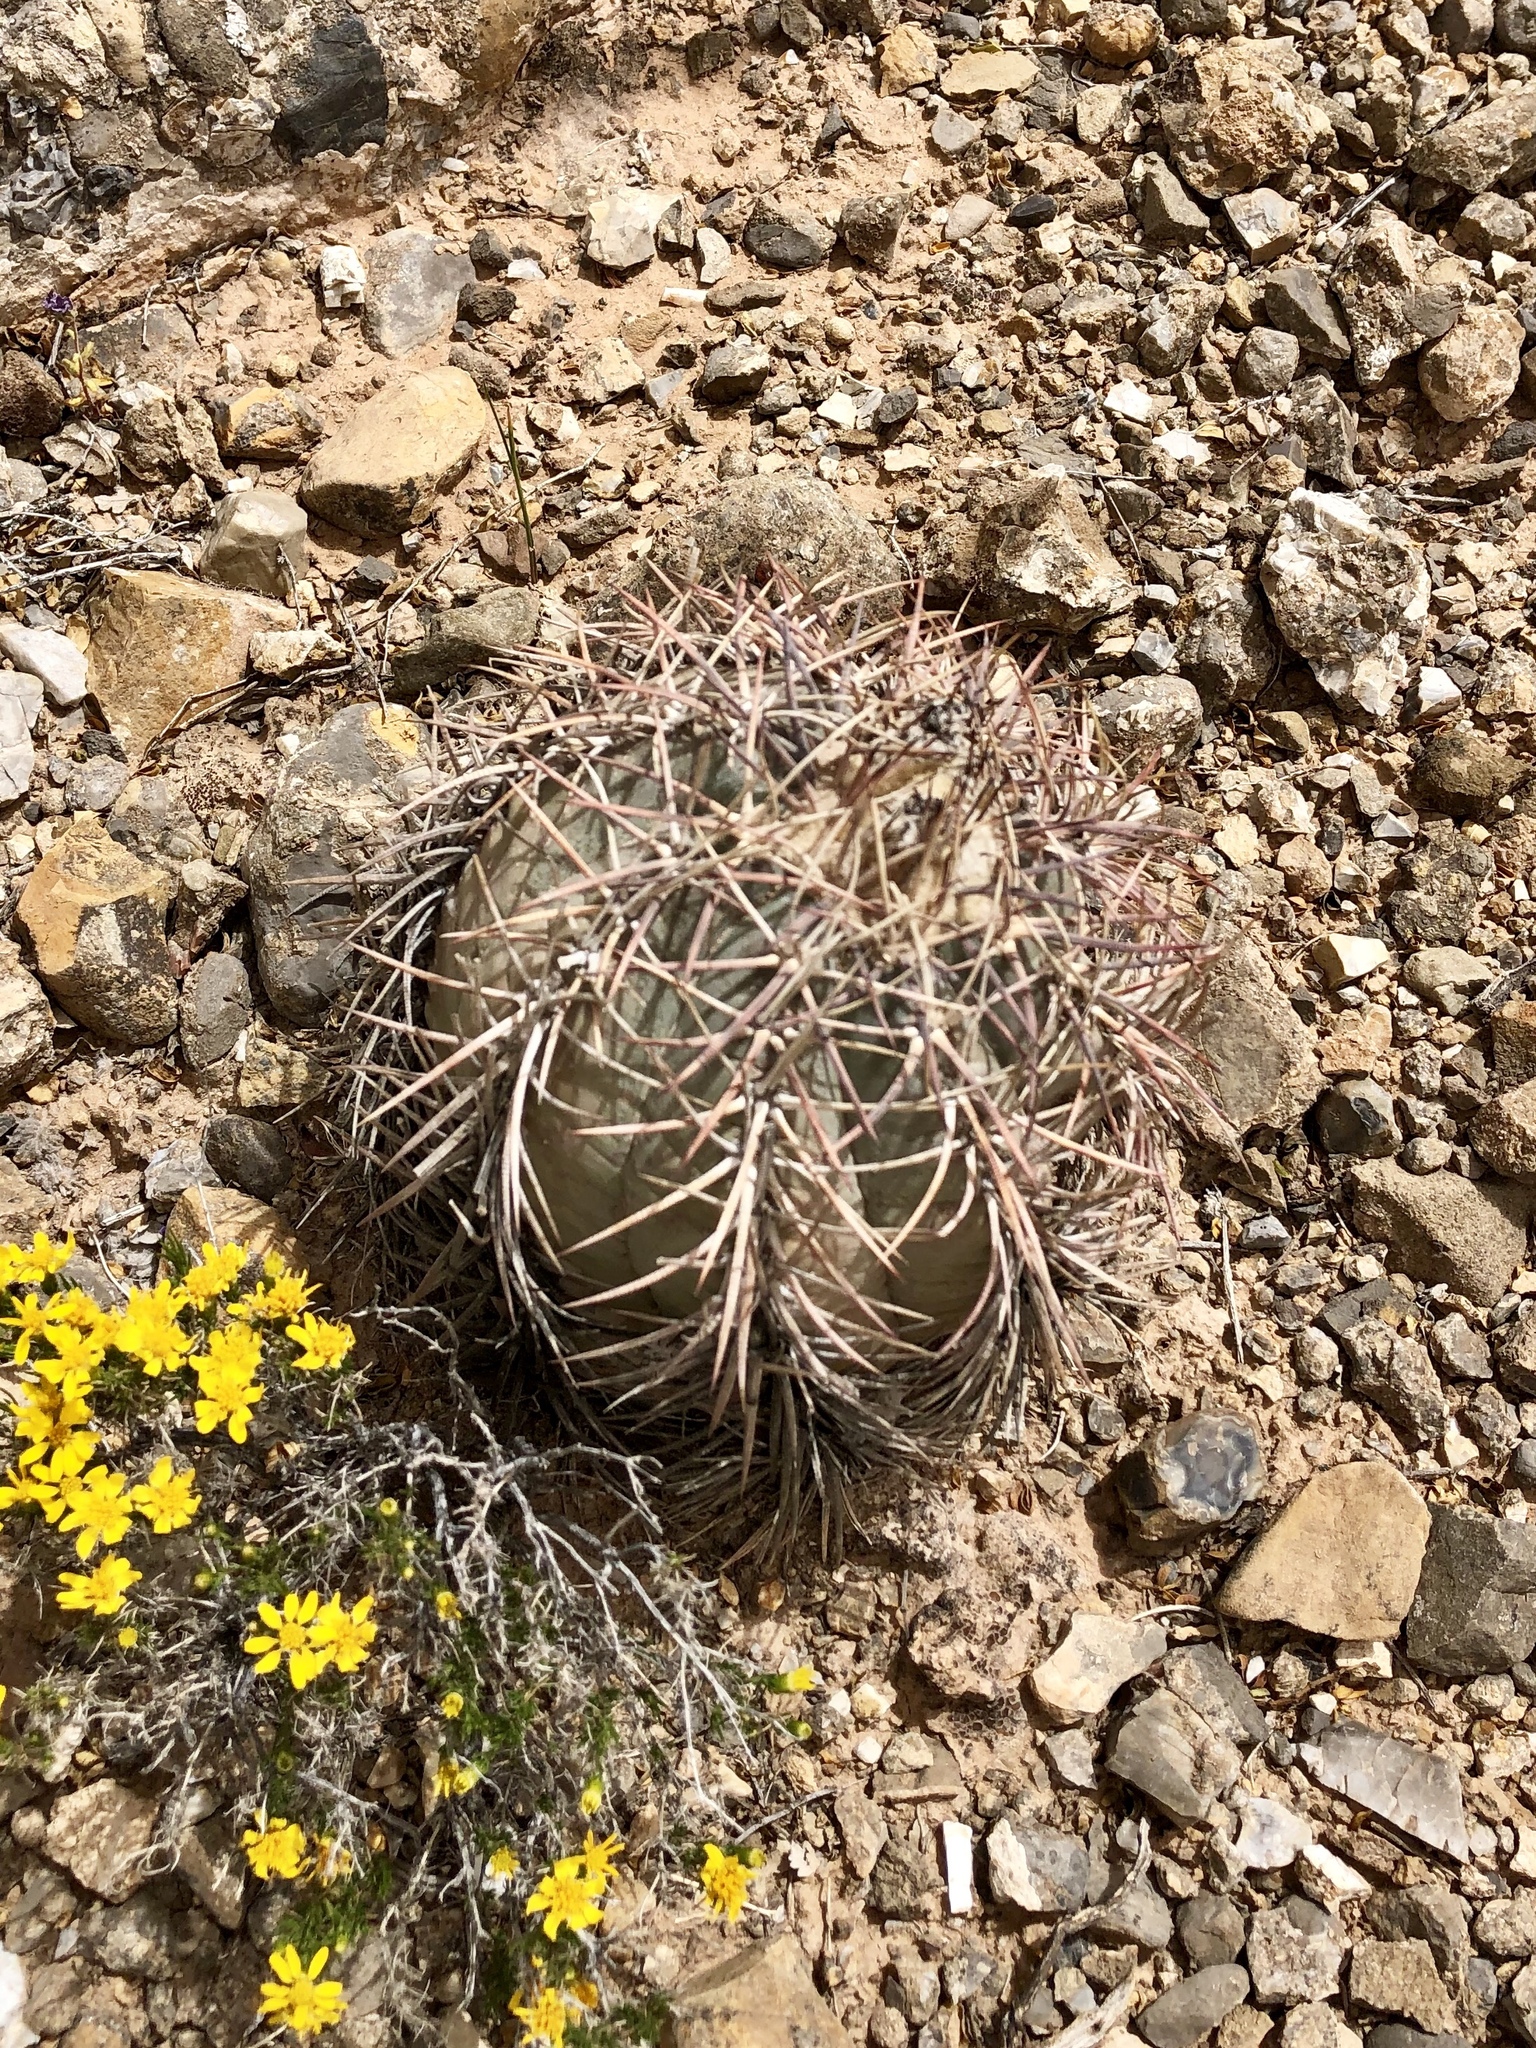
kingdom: Plantae
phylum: Tracheophyta
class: Magnoliopsida
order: Caryophyllales
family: Cactaceae
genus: Echinocactus
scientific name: Echinocactus horizonthalonius
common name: Devilshead
